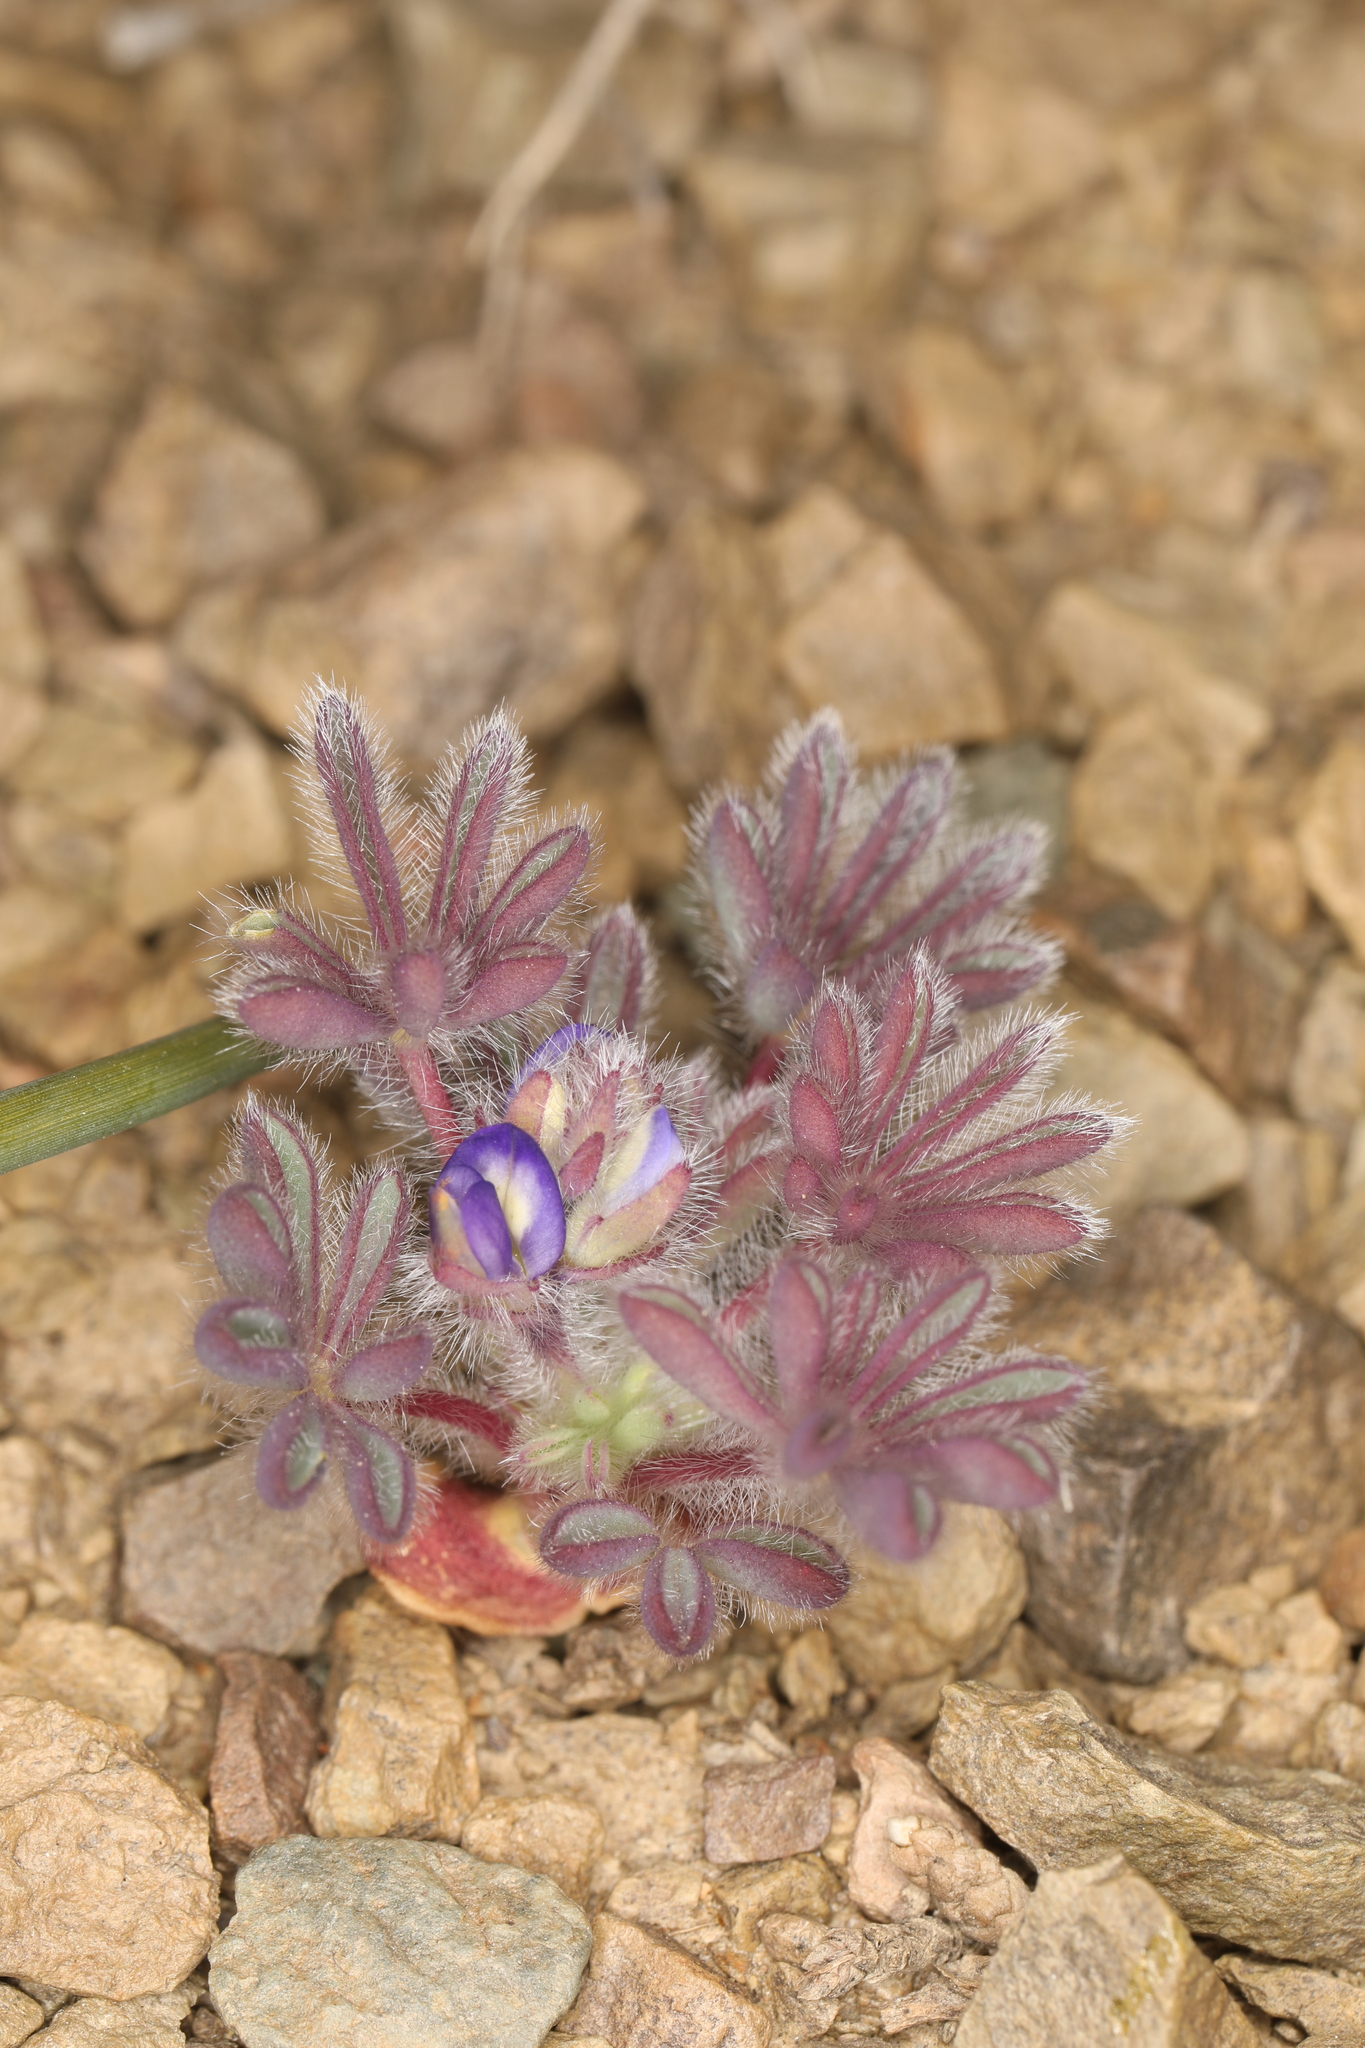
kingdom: Plantae
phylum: Tracheophyta
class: Magnoliopsida
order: Fabales
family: Fabaceae
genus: Lupinus
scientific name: Lupinus brevicaulis
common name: Sand lupine
